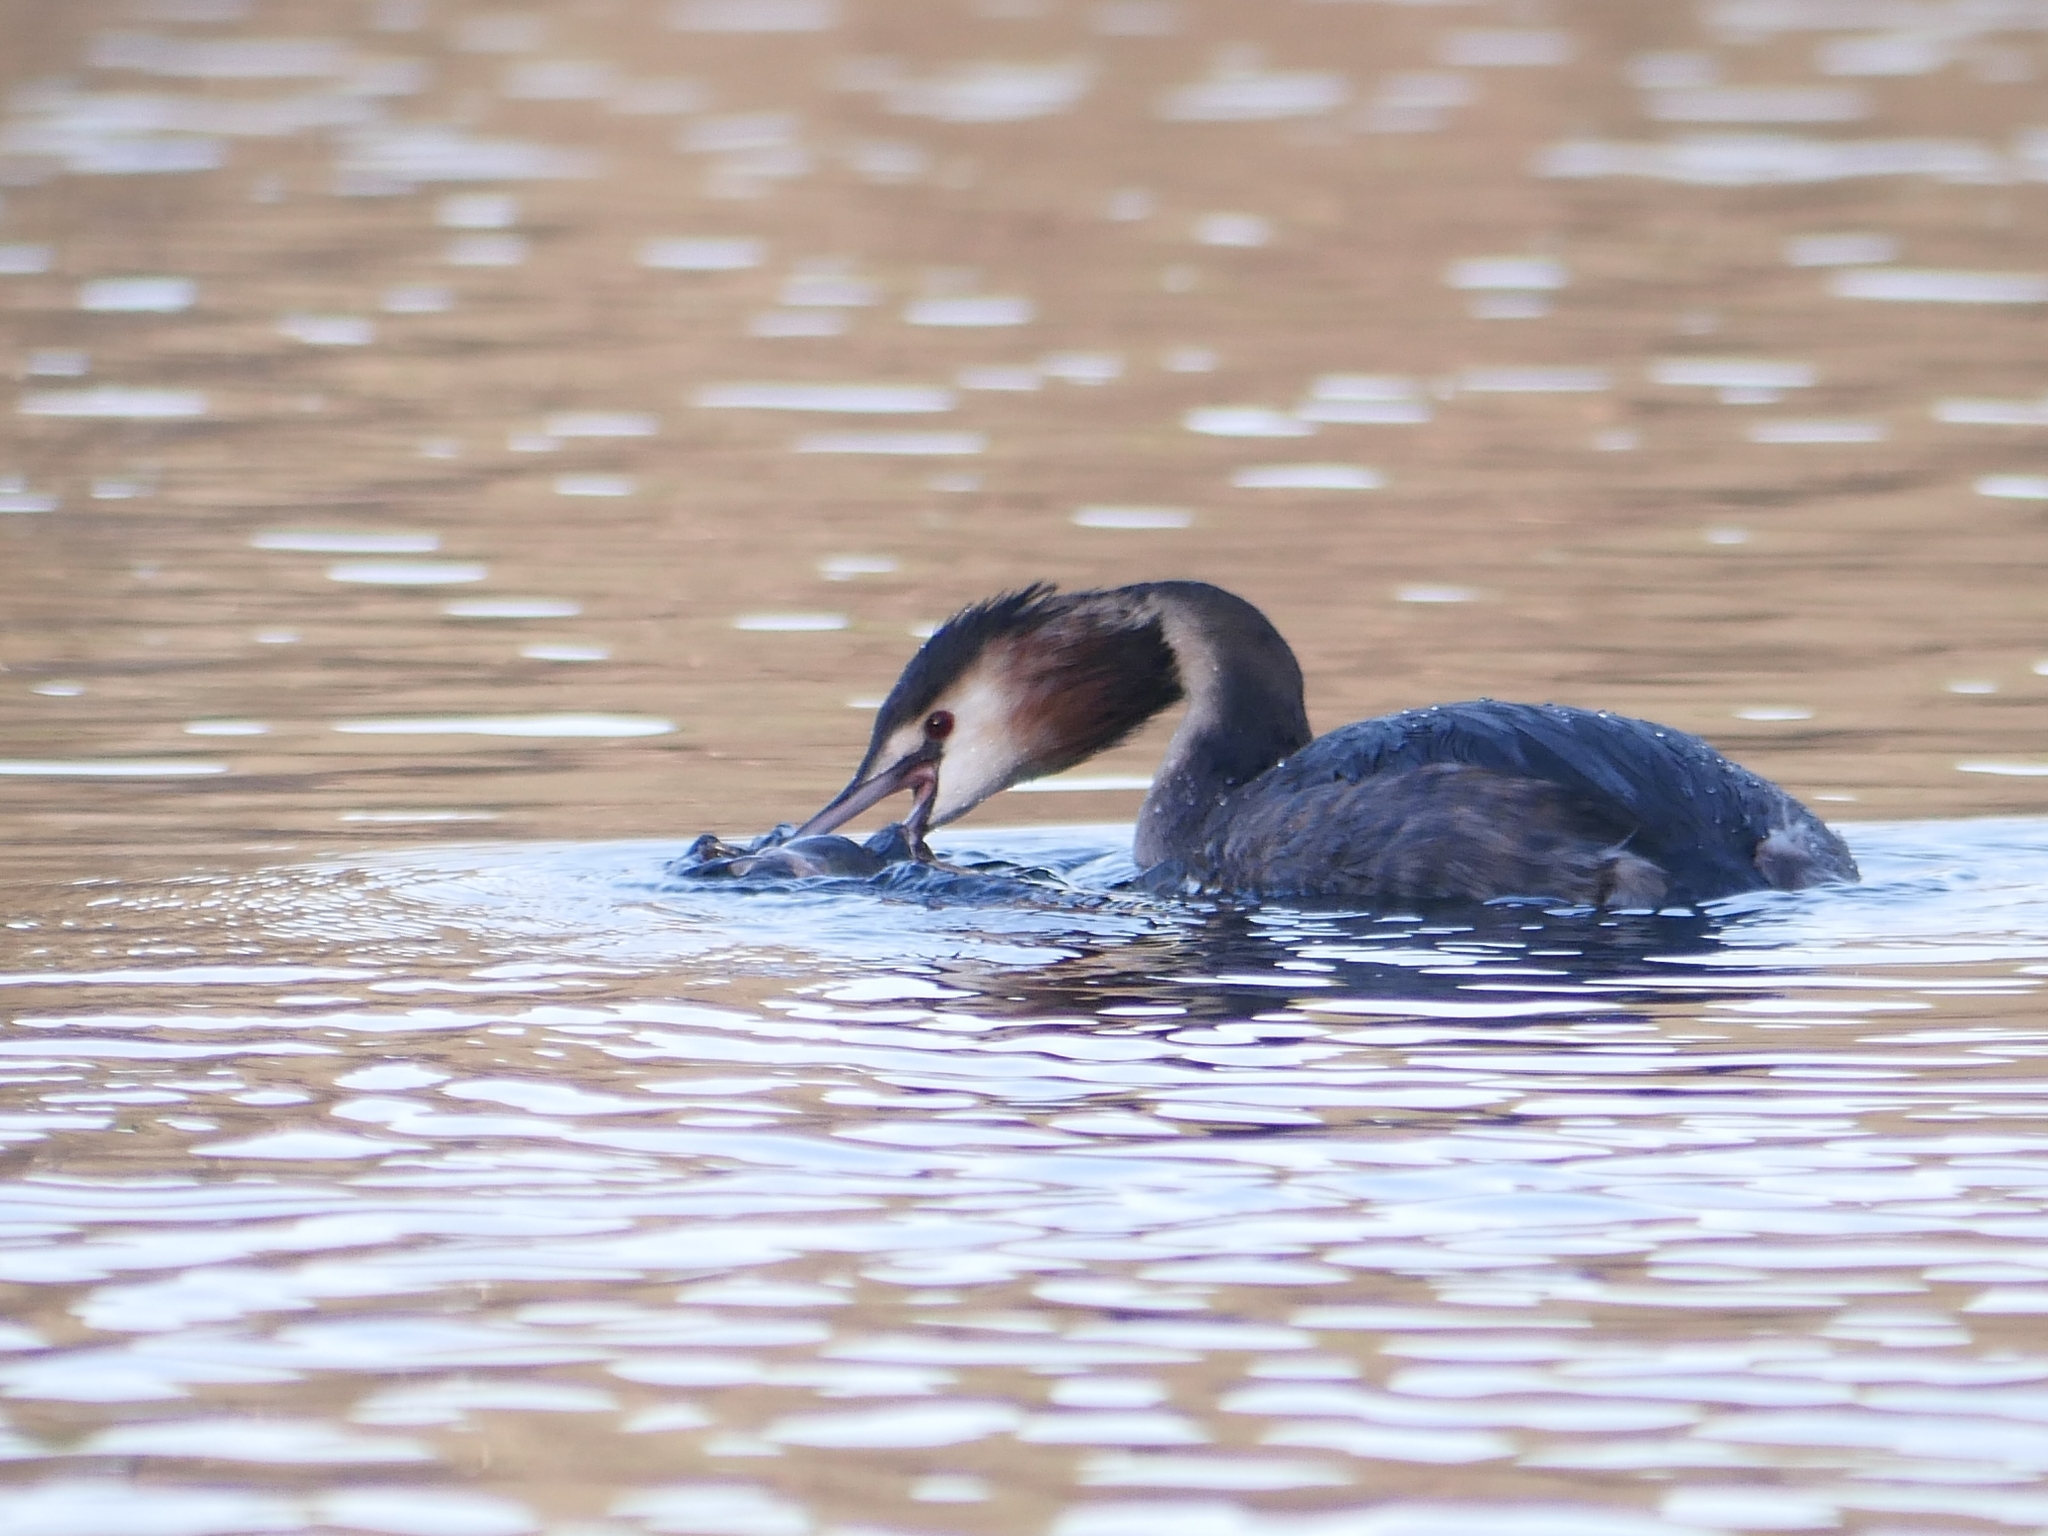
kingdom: Animalia
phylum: Chordata
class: Aves
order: Podicipediformes
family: Podicipedidae
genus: Podiceps
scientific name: Podiceps cristatus
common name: Great crested grebe
